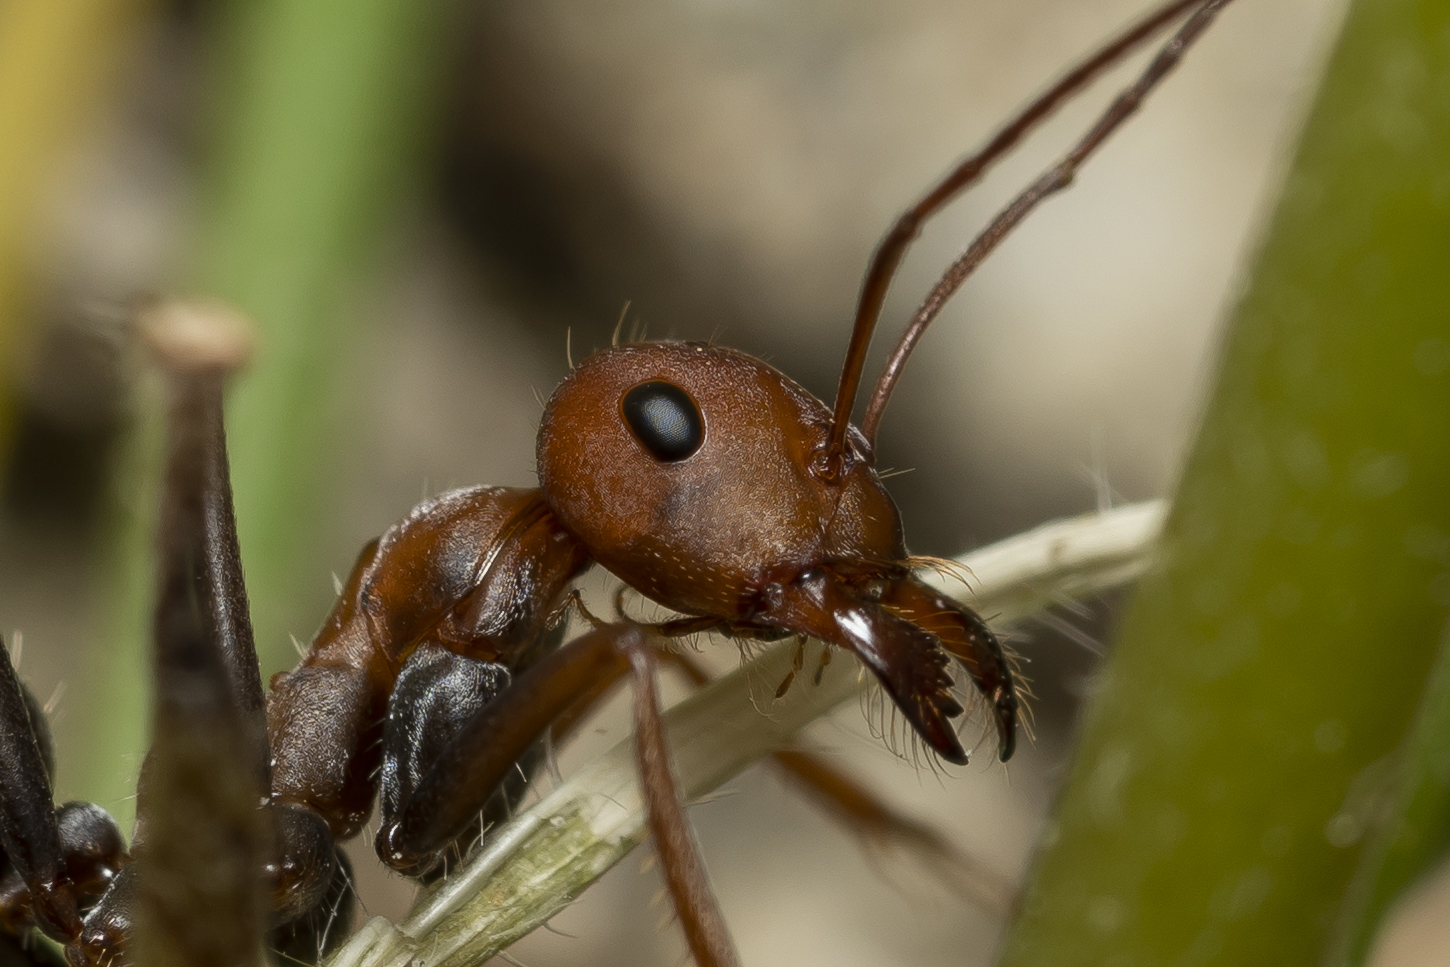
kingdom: Animalia
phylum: Arthropoda
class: Insecta
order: Hymenoptera
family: Formicidae
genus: Cataglyphis
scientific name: Cataglyphis nodus
